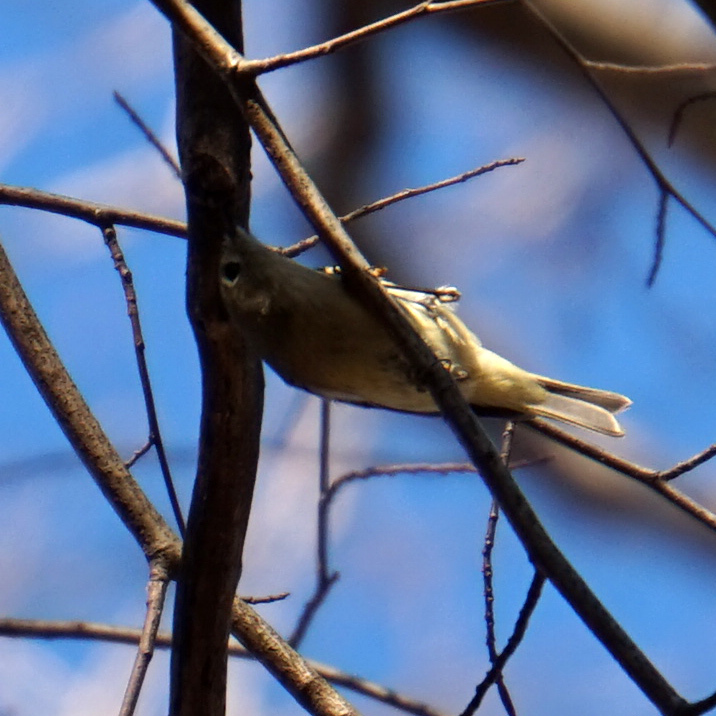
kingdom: Animalia
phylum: Chordata
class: Aves
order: Passeriformes
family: Regulidae
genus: Regulus
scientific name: Regulus calendula
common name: Ruby-crowned kinglet
